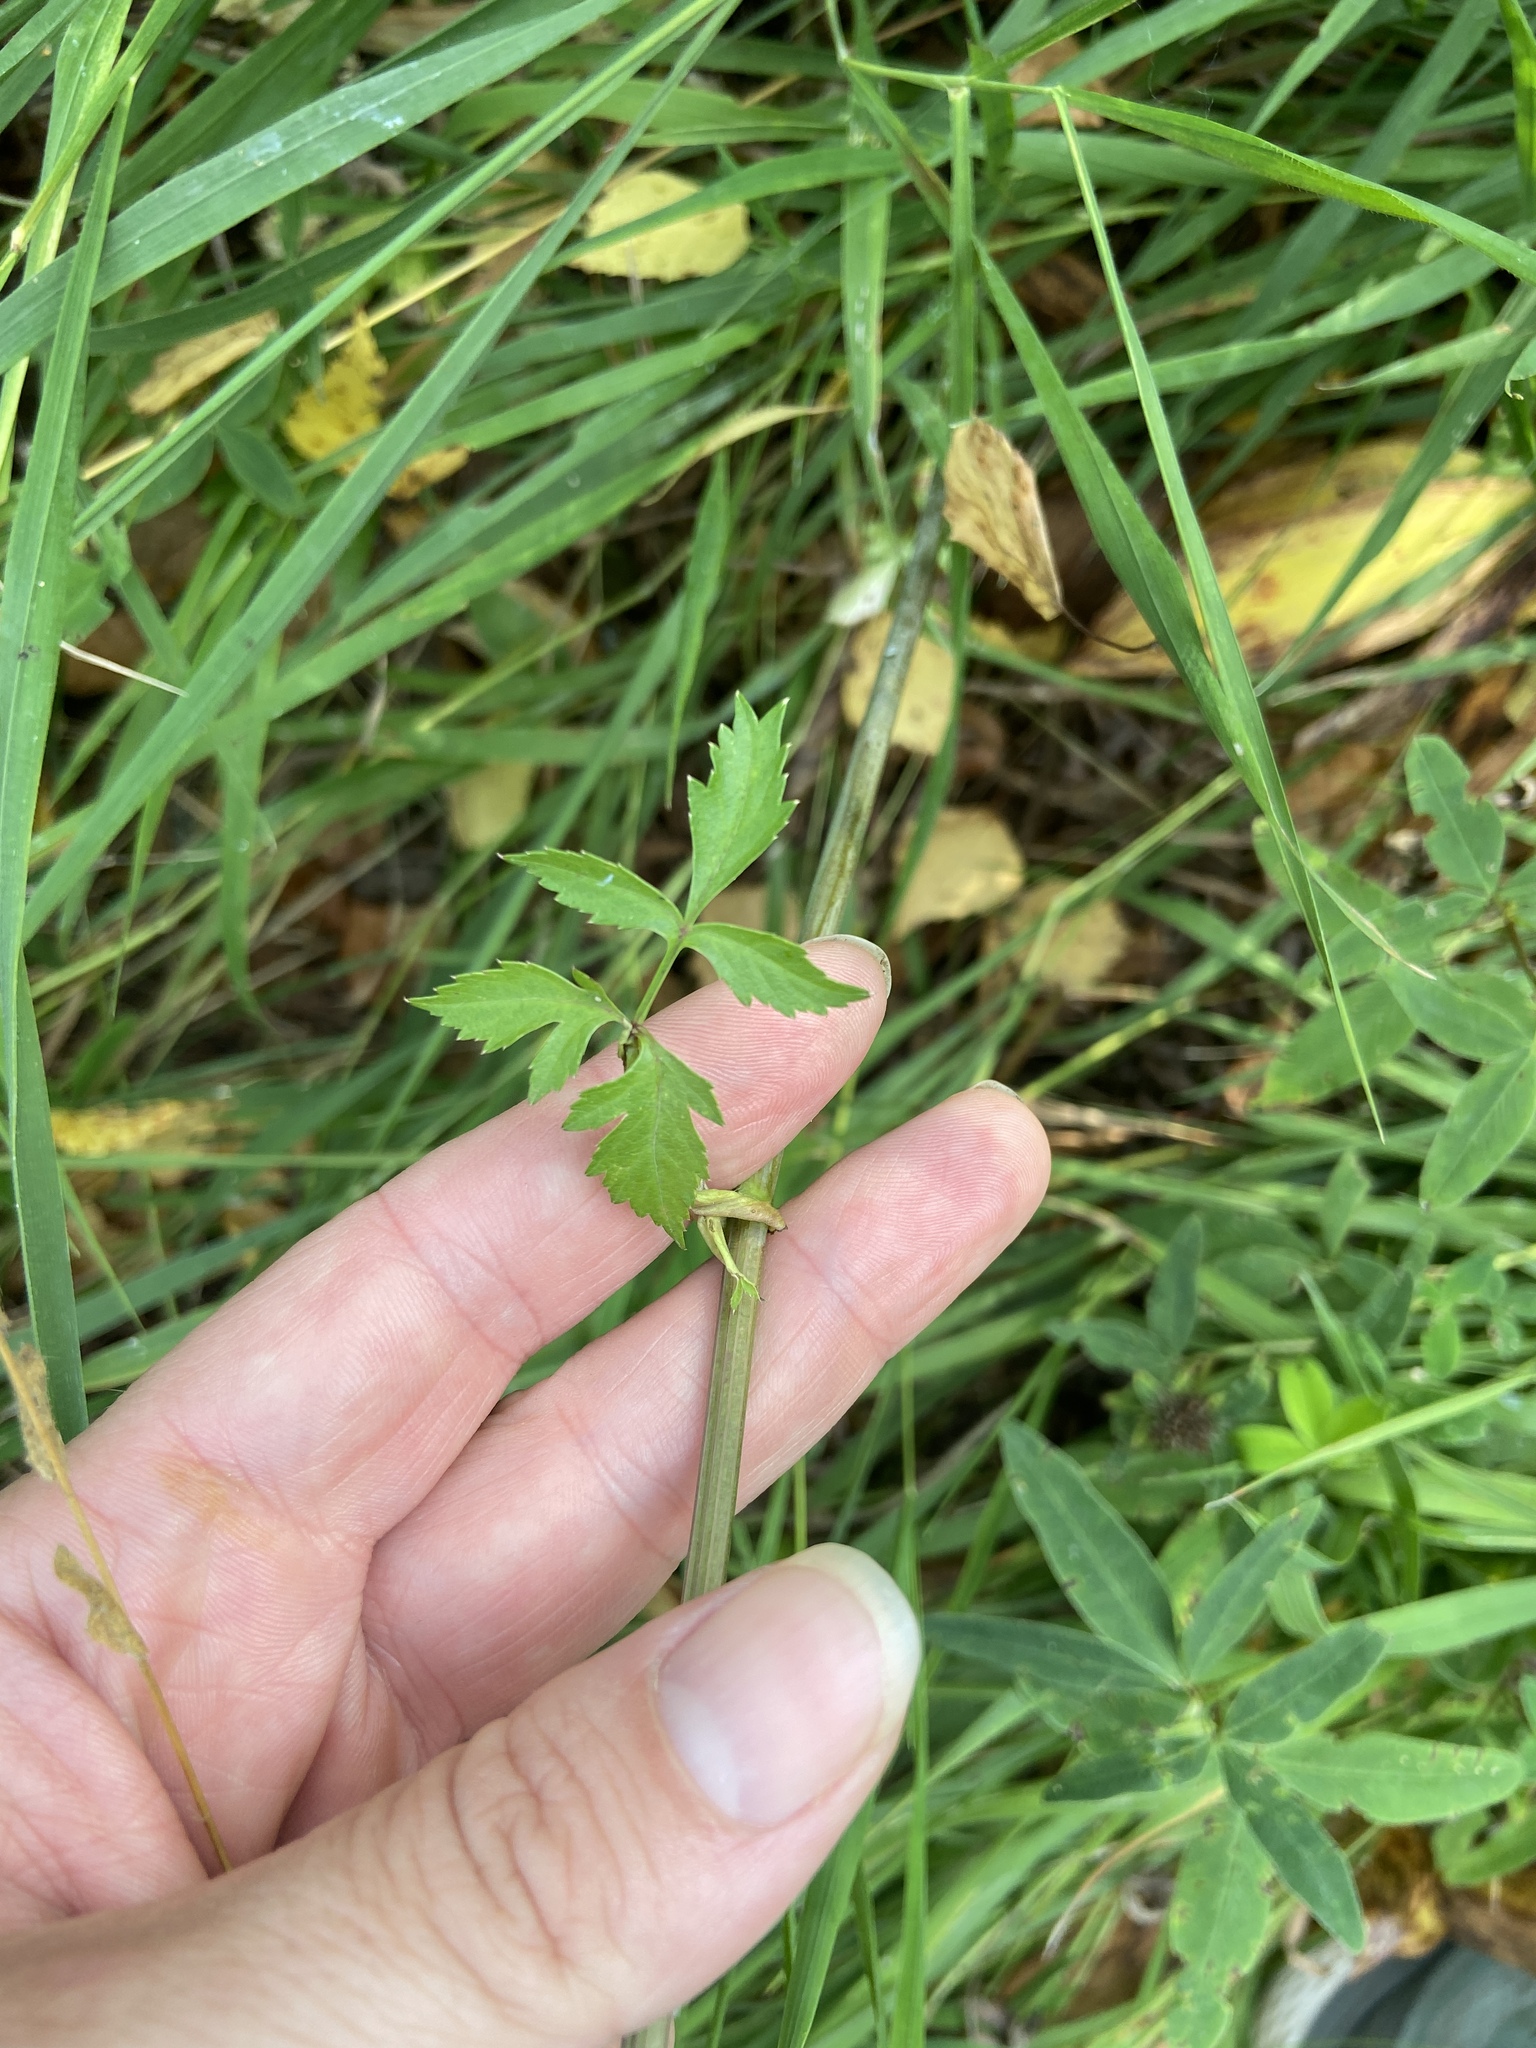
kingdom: Plantae
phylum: Tracheophyta
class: Magnoliopsida
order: Apiales
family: Apiaceae
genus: Angelica
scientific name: Angelica sylvestris
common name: Wild angelica
